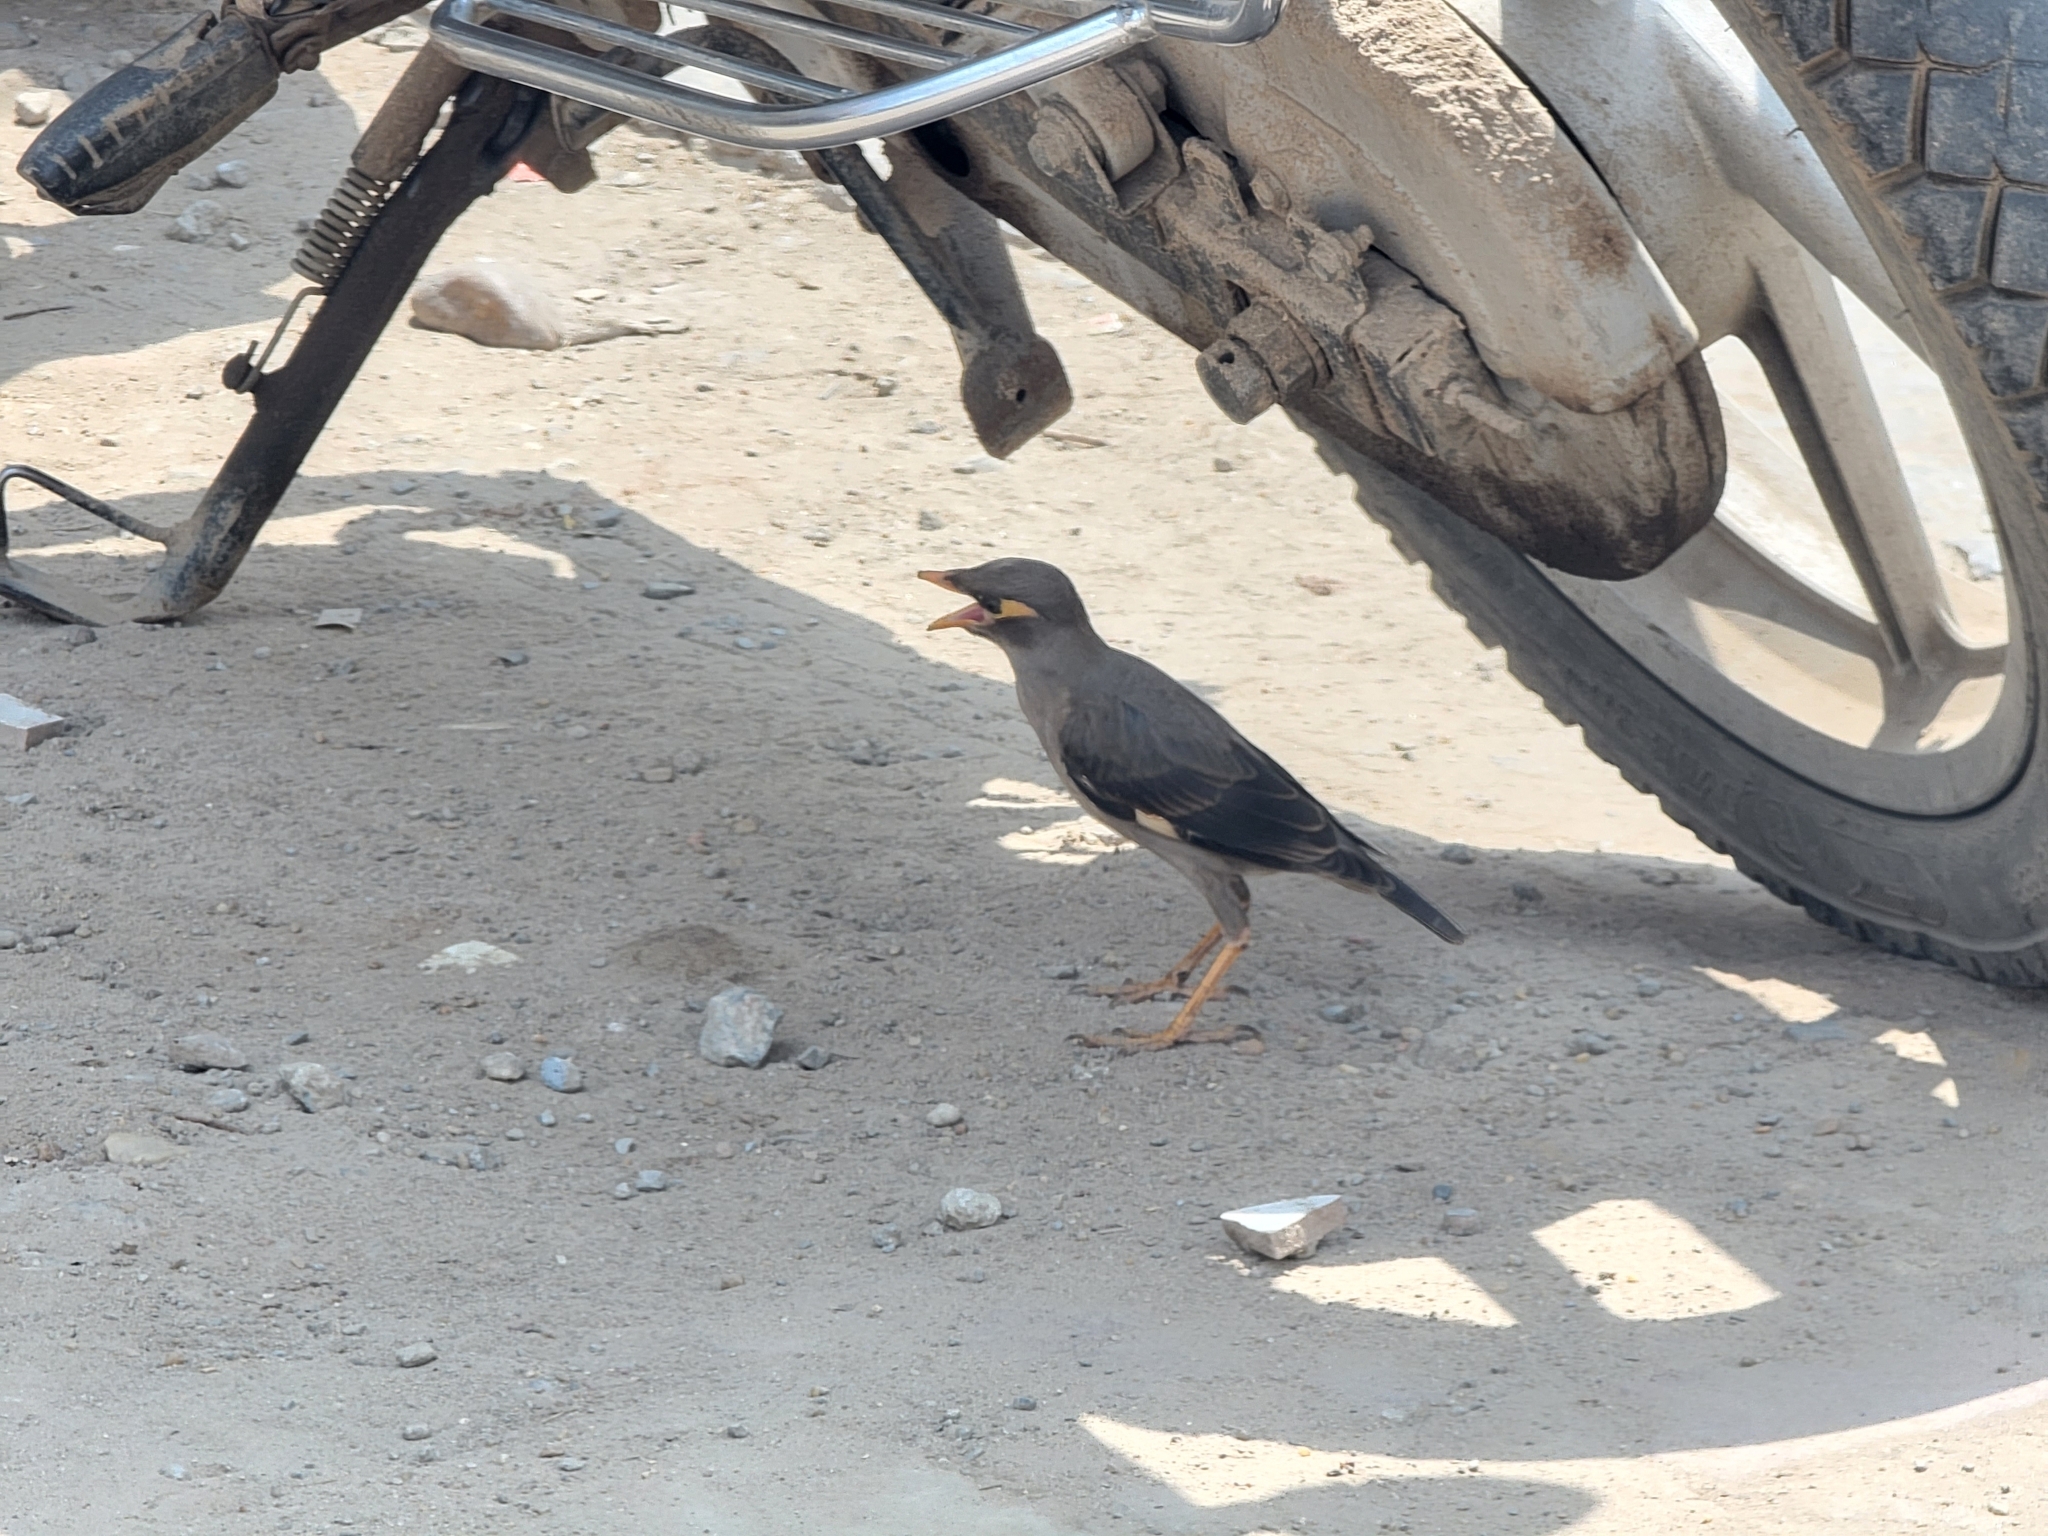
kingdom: Animalia
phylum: Chordata
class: Aves
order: Passeriformes
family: Sturnidae
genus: Acridotheres
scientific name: Acridotheres ginginianus
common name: Bank myna
